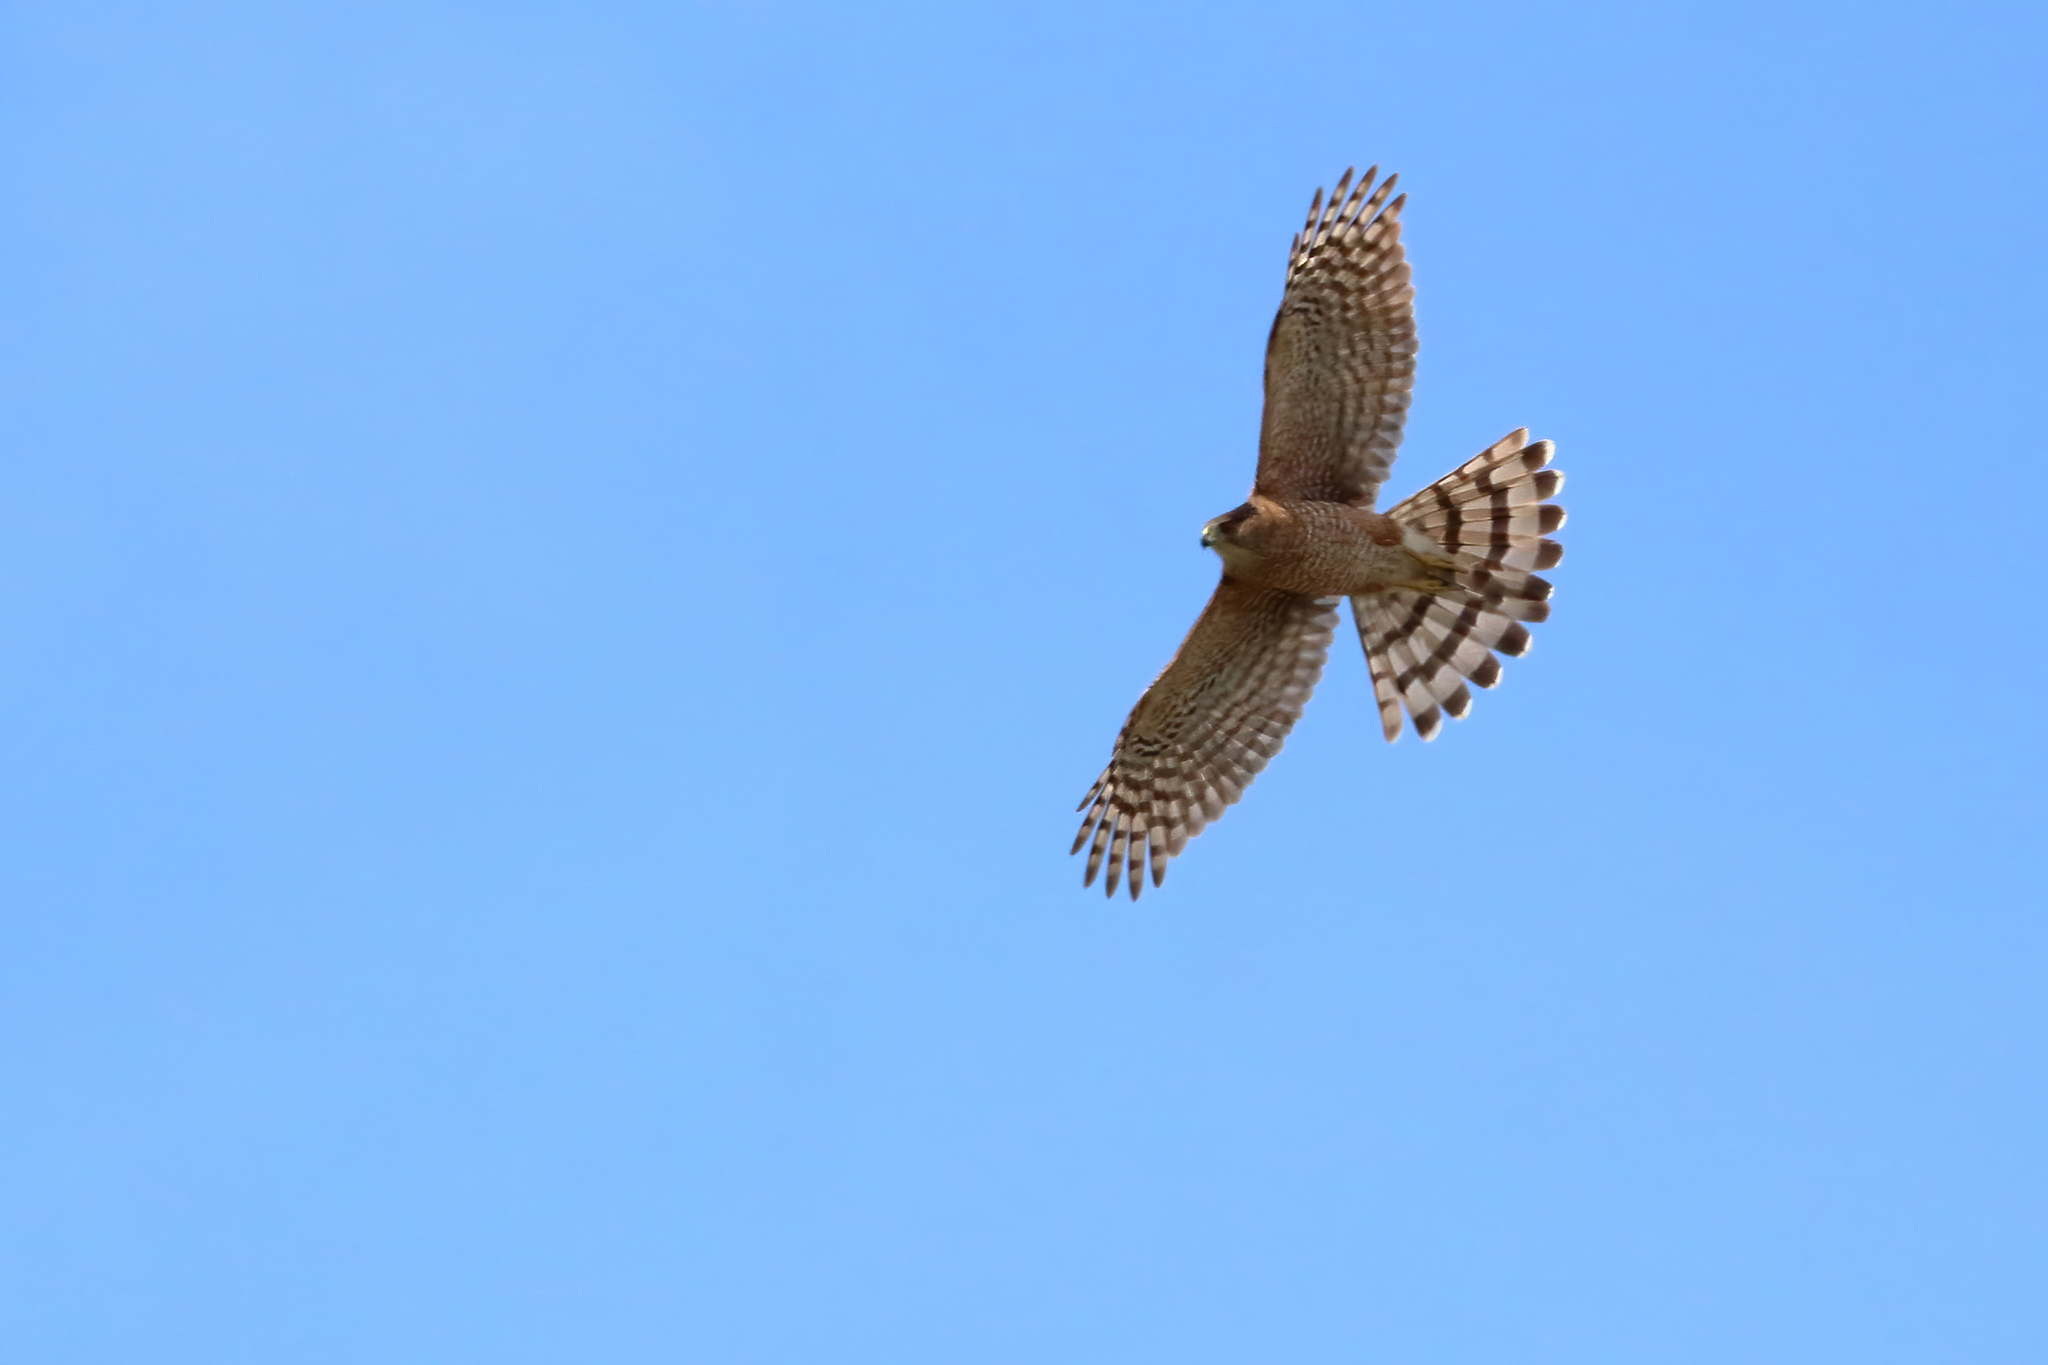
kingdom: Animalia
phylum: Chordata
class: Aves
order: Accipitriformes
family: Accipitridae
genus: Accipiter
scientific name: Accipiter cooperii
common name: Cooper's hawk
